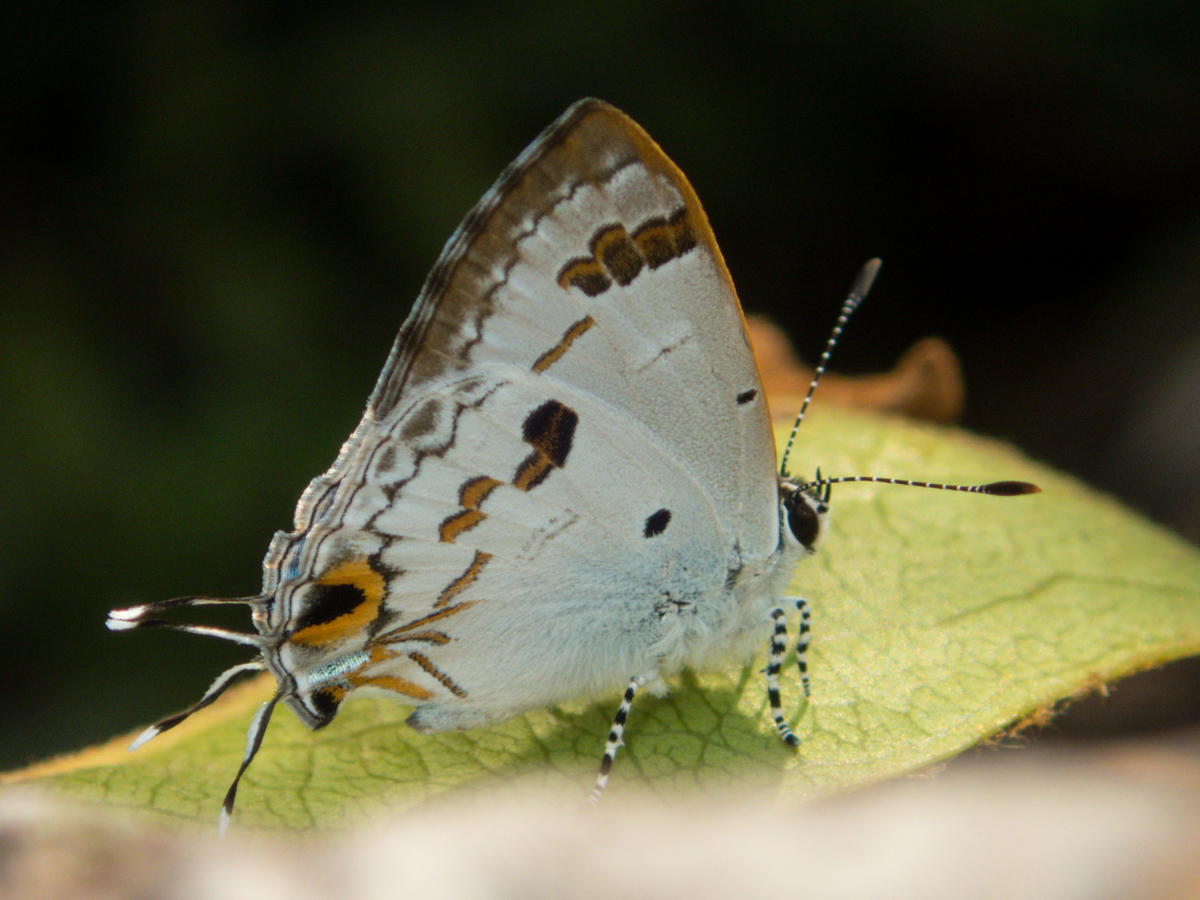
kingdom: Animalia
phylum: Arthropoda
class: Insecta
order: Lepidoptera
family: Lycaenidae
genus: Chliaria
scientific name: Chliaria othona
